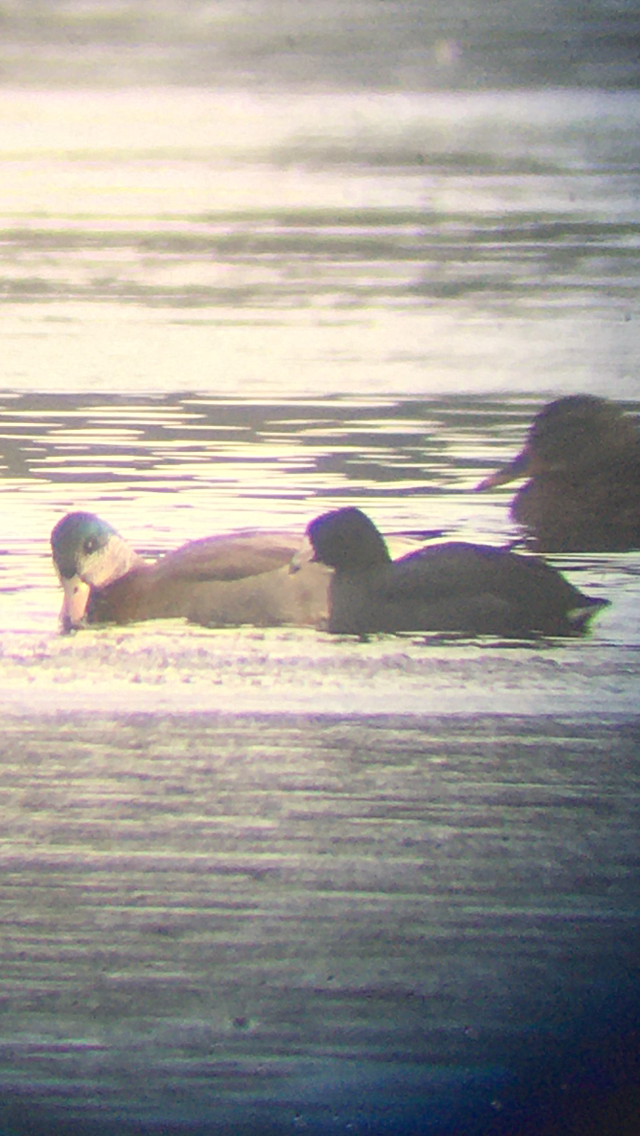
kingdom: Animalia
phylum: Chordata
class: Aves
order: Gruiformes
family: Rallidae
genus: Fulica
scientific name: Fulica americana
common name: American coot
